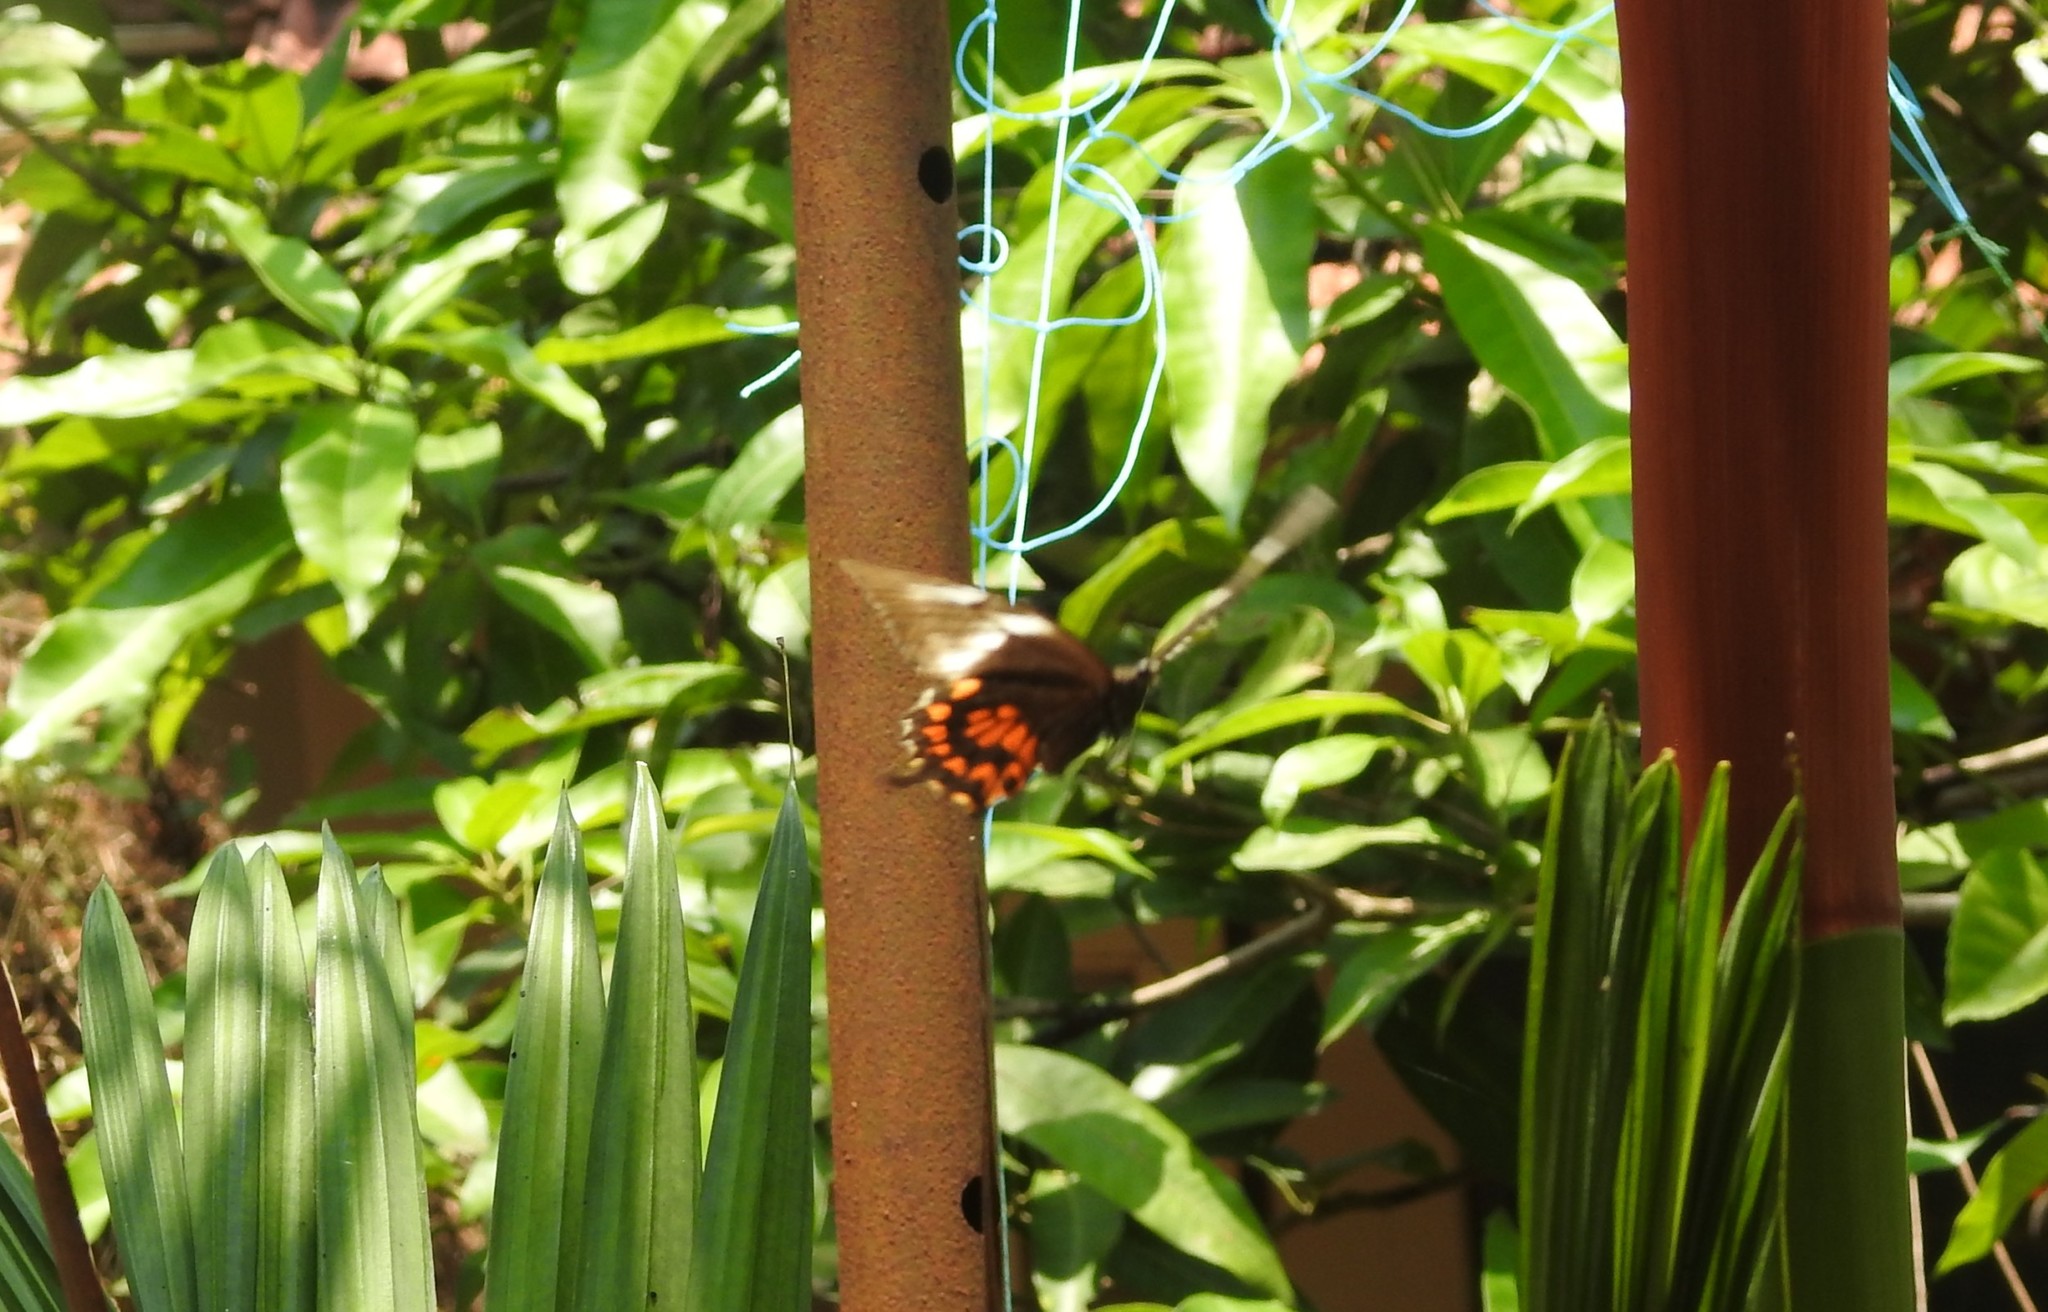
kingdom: Animalia
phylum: Arthropoda
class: Insecta
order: Lepidoptera
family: Papilionidae
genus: Papilio
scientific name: Papilio polytes
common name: Common mormon
